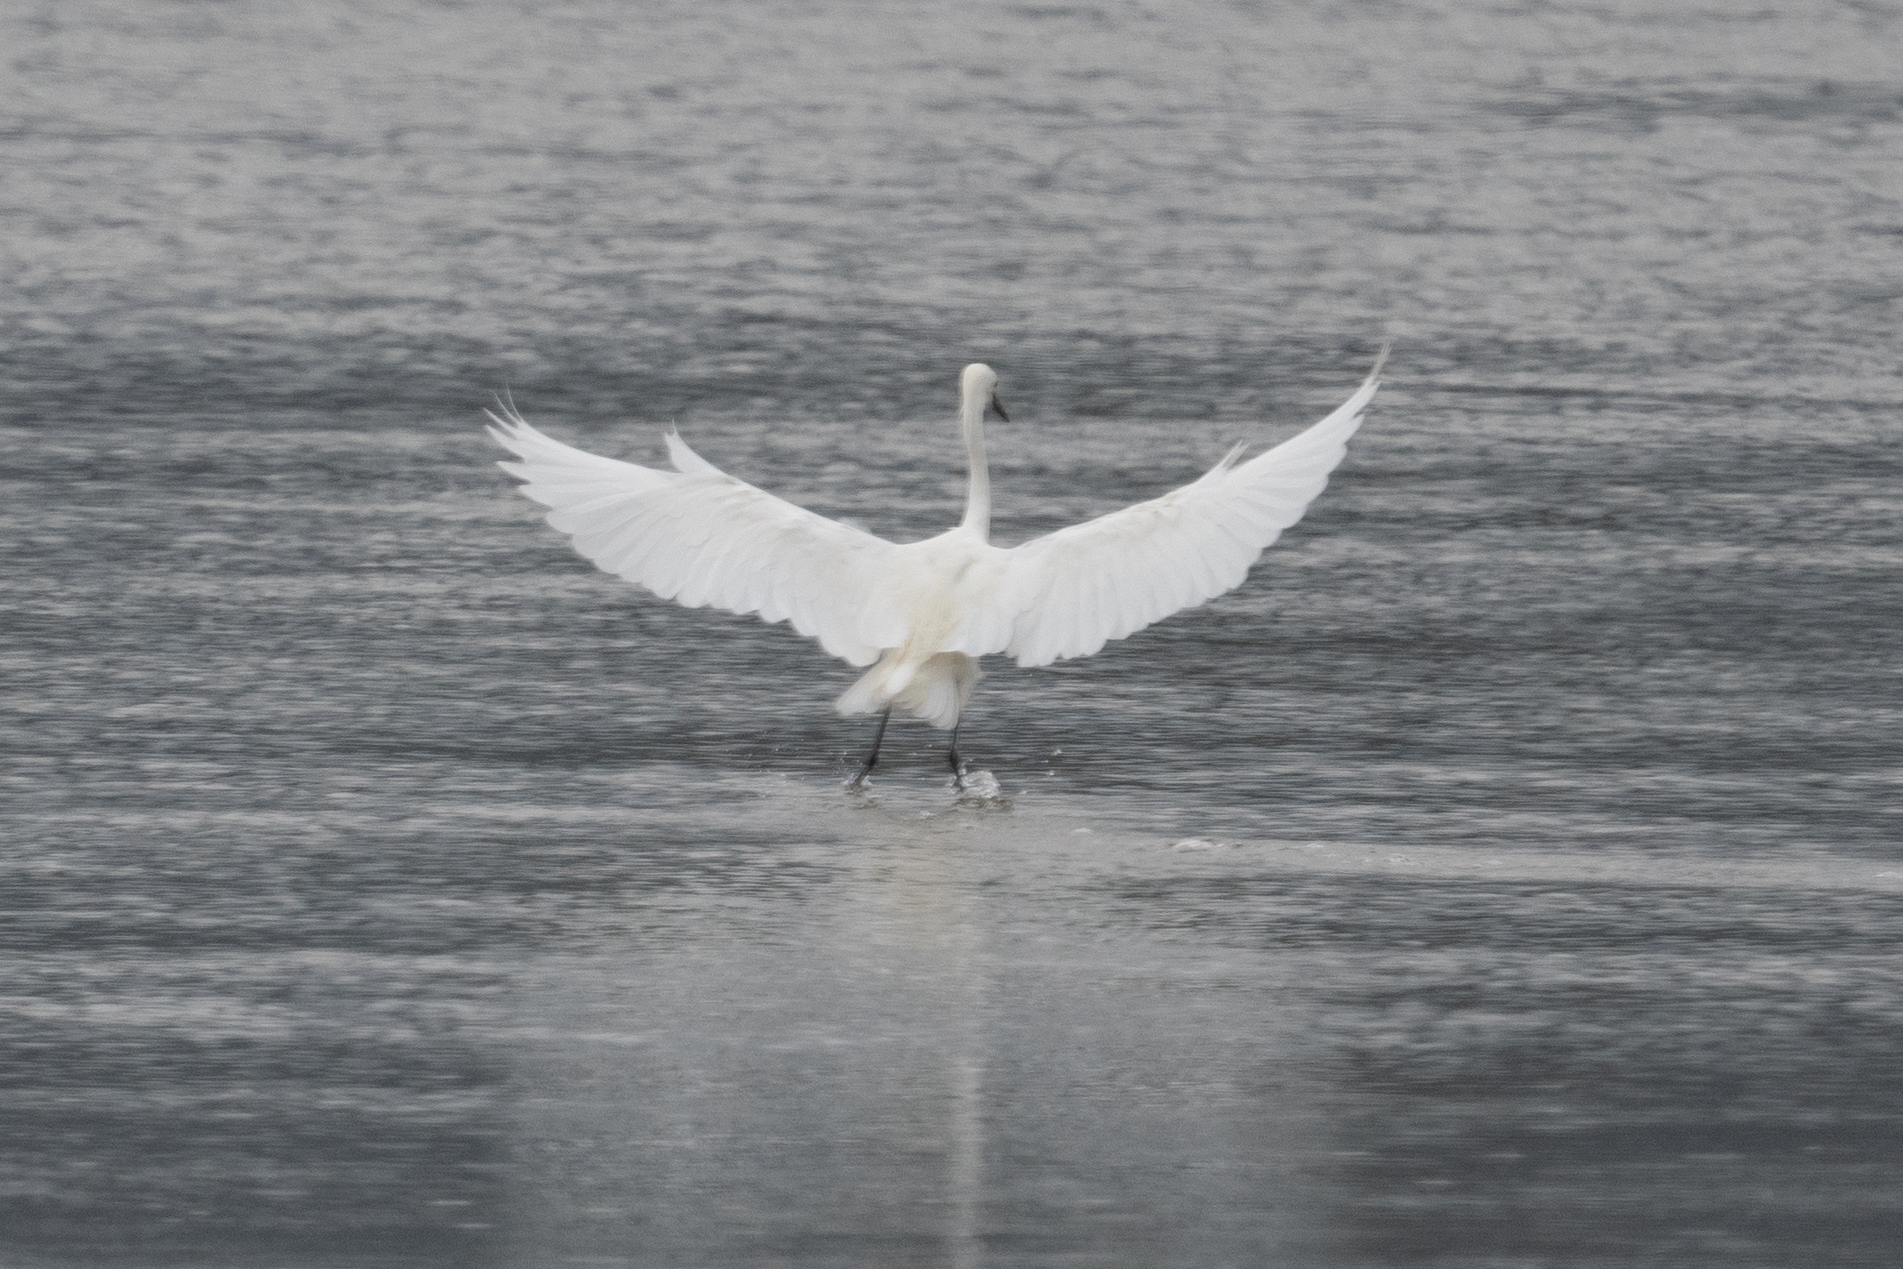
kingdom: Animalia
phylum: Chordata
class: Aves
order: Pelecaniformes
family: Ardeidae
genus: Ardea
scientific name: Ardea alba
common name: Great egret
